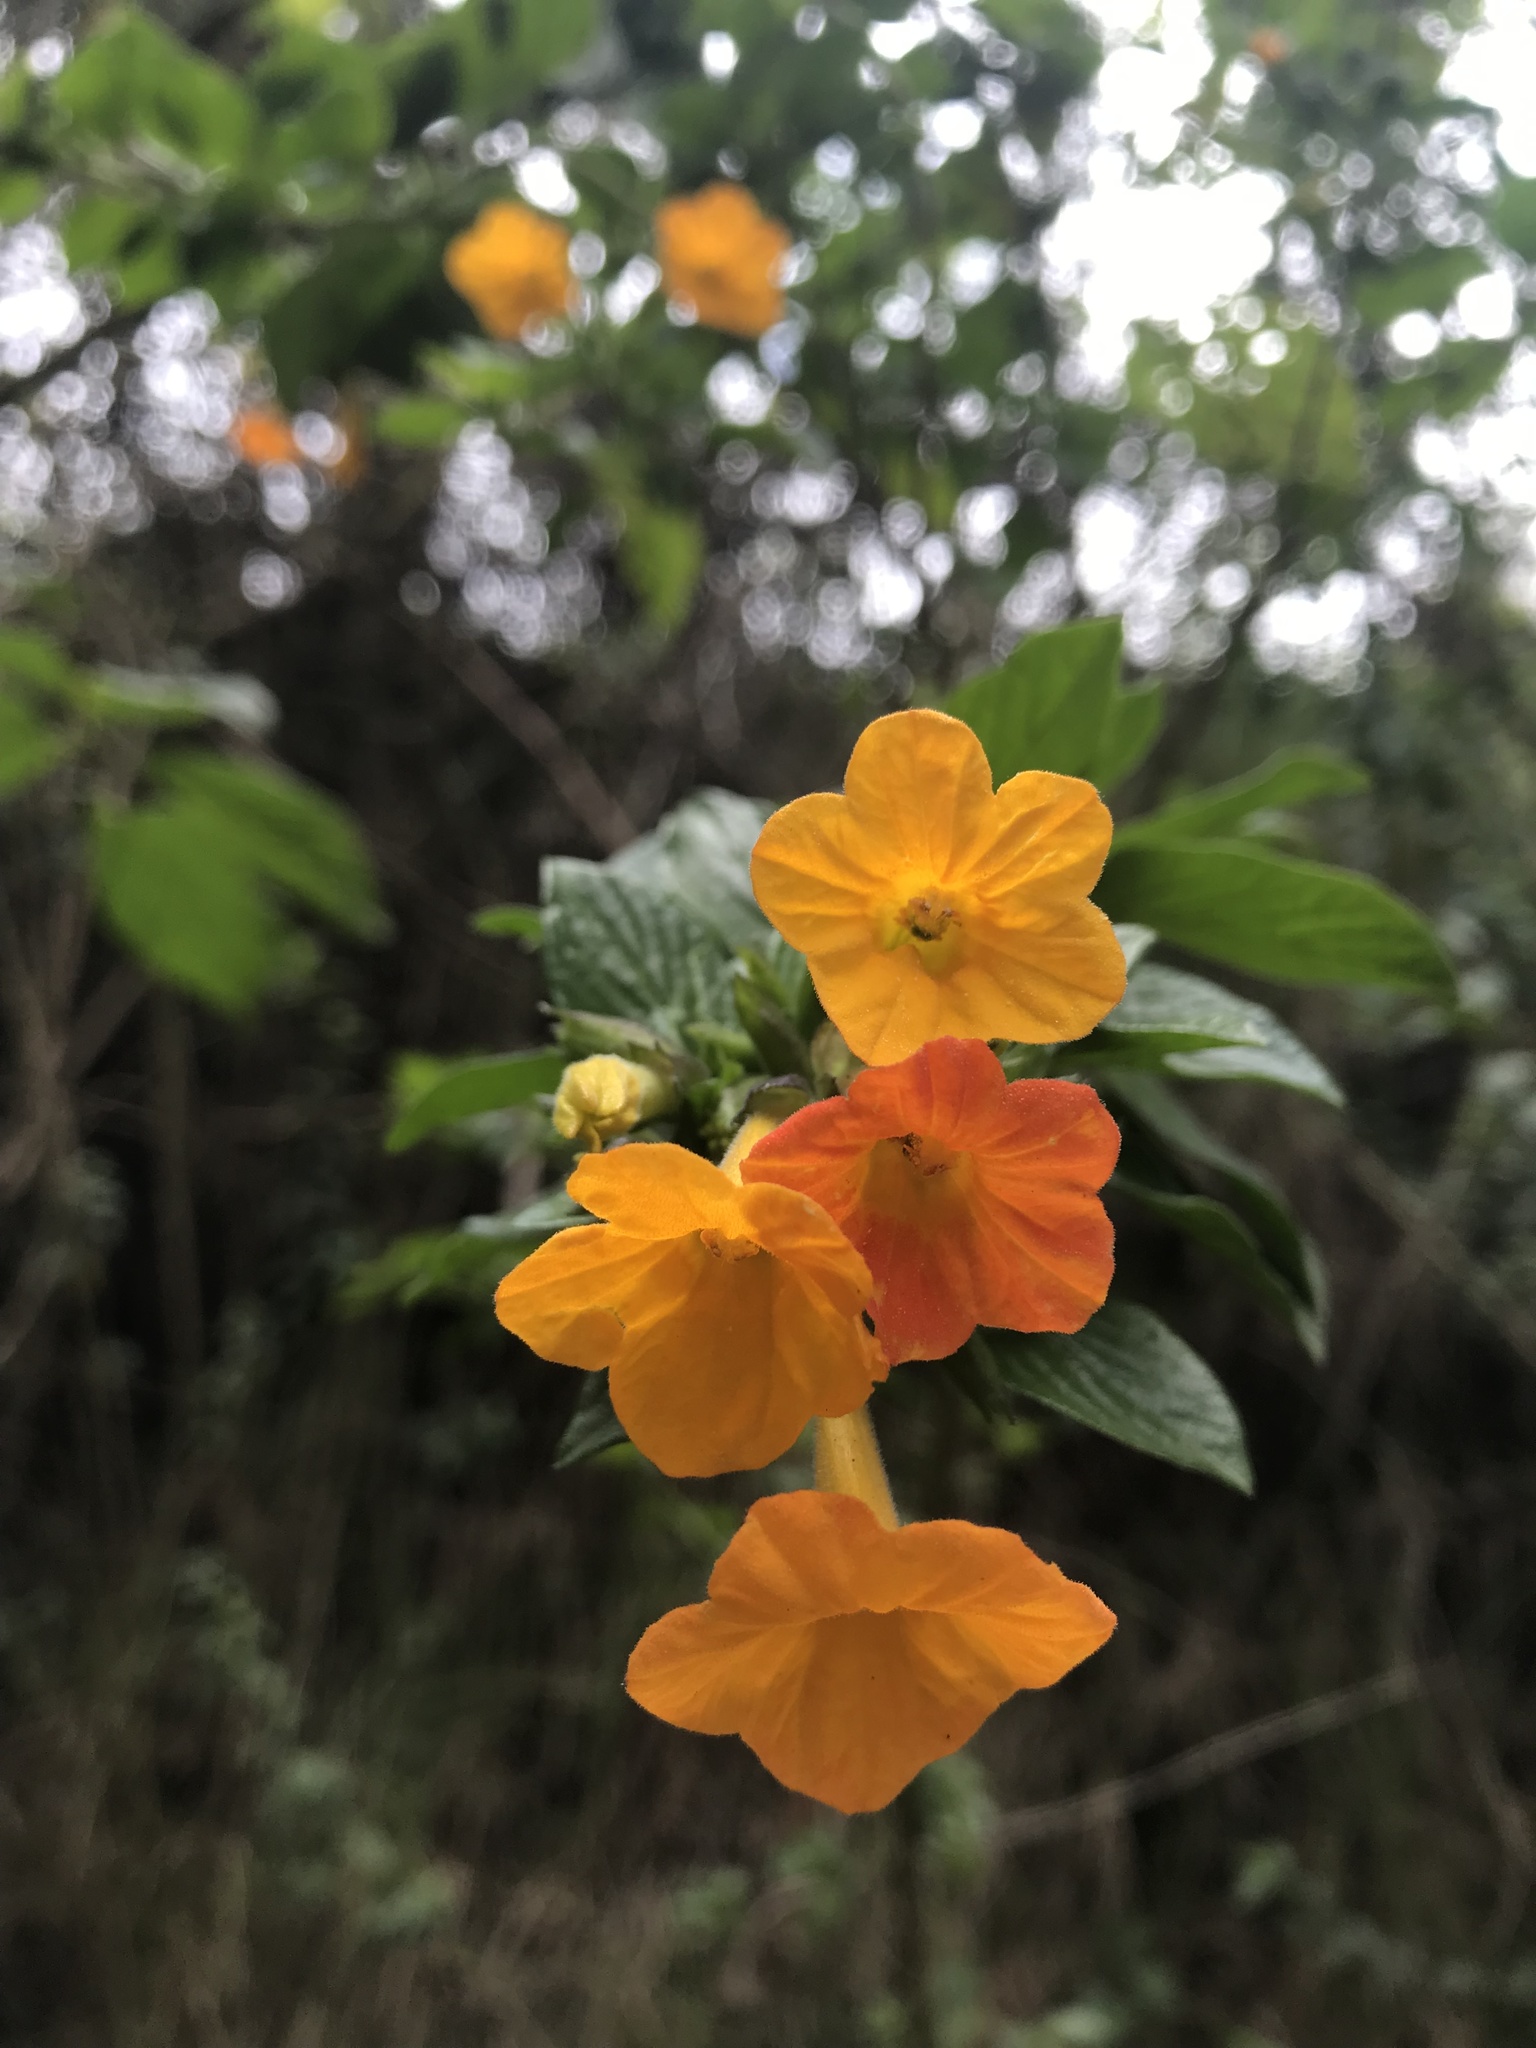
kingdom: Plantae
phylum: Tracheophyta
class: Magnoliopsida
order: Solanales
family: Solanaceae
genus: Streptosolen
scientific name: Streptosolen jamesonii
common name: Marmalade bush
